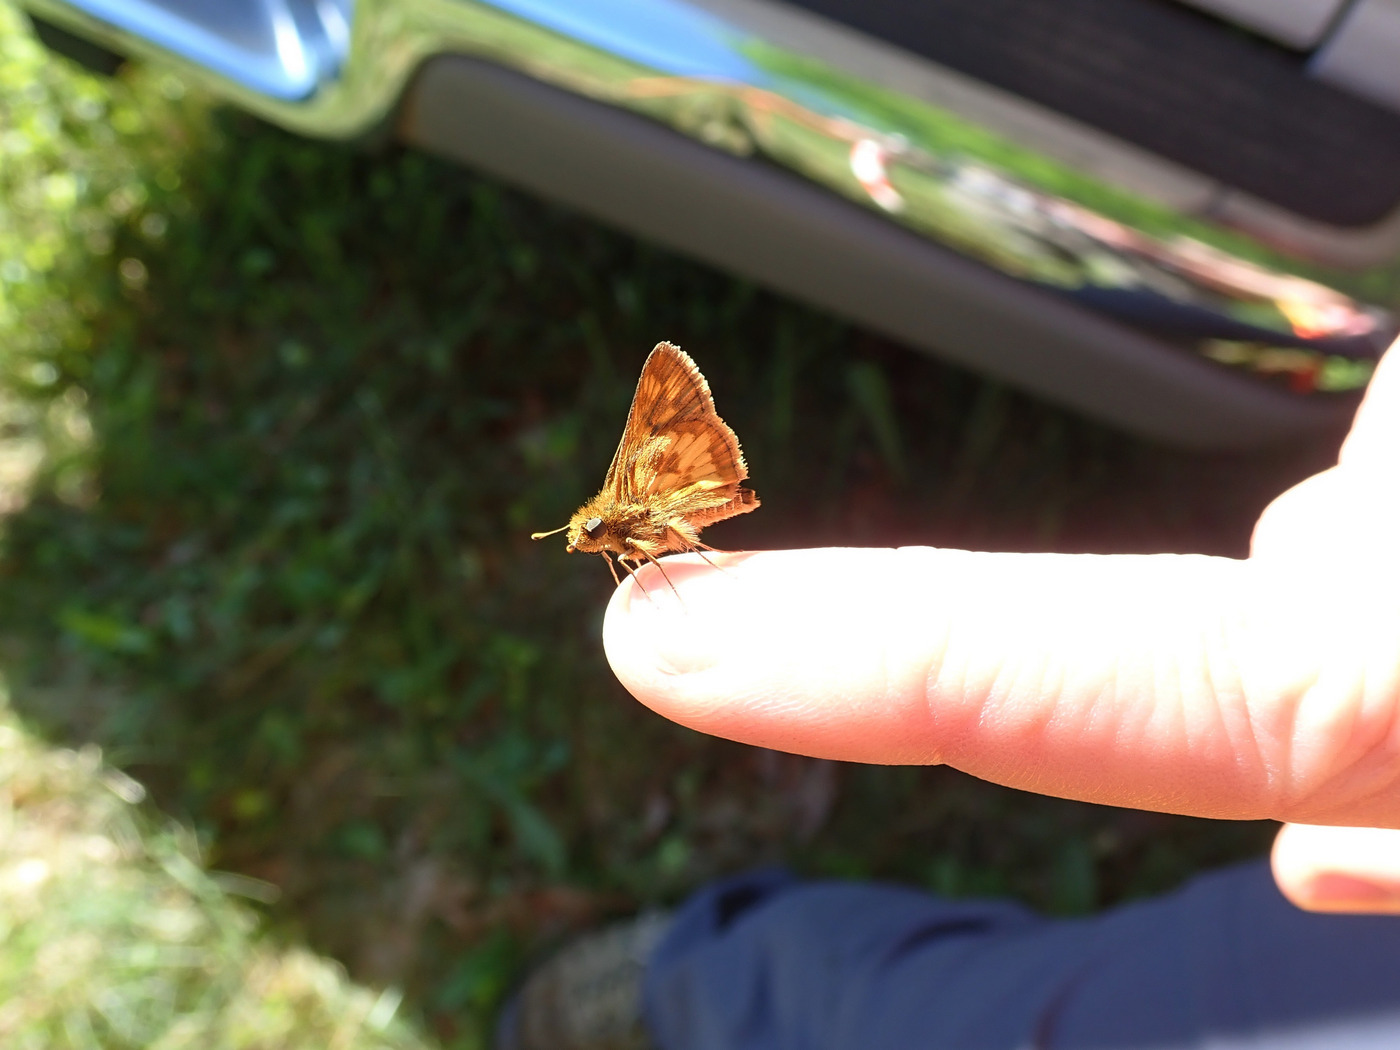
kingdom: Animalia
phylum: Arthropoda
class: Insecta
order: Lepidoptera
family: Hesperiidae
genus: Polites
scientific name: Polites coras
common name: Peck's skipper
